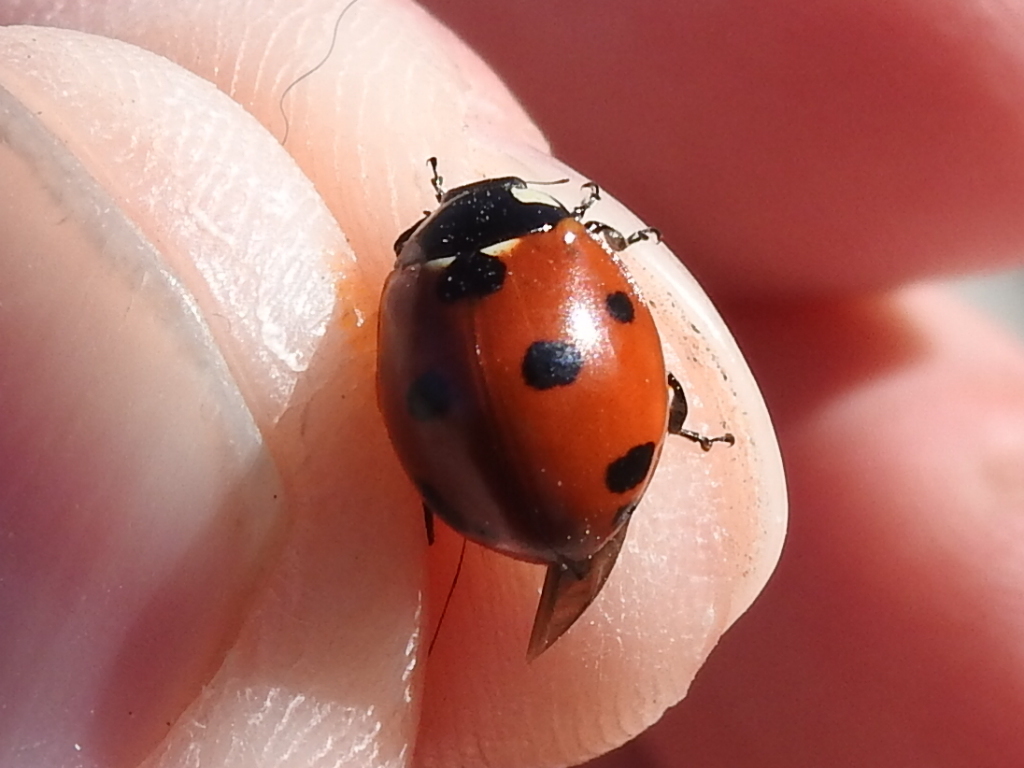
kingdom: Animalia
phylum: Arthropoda
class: Insecta
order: Coleoptera
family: Coccinellidae
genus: Coccinella
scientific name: Coccinella septempunctata
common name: Sevenspotted lady beetle
